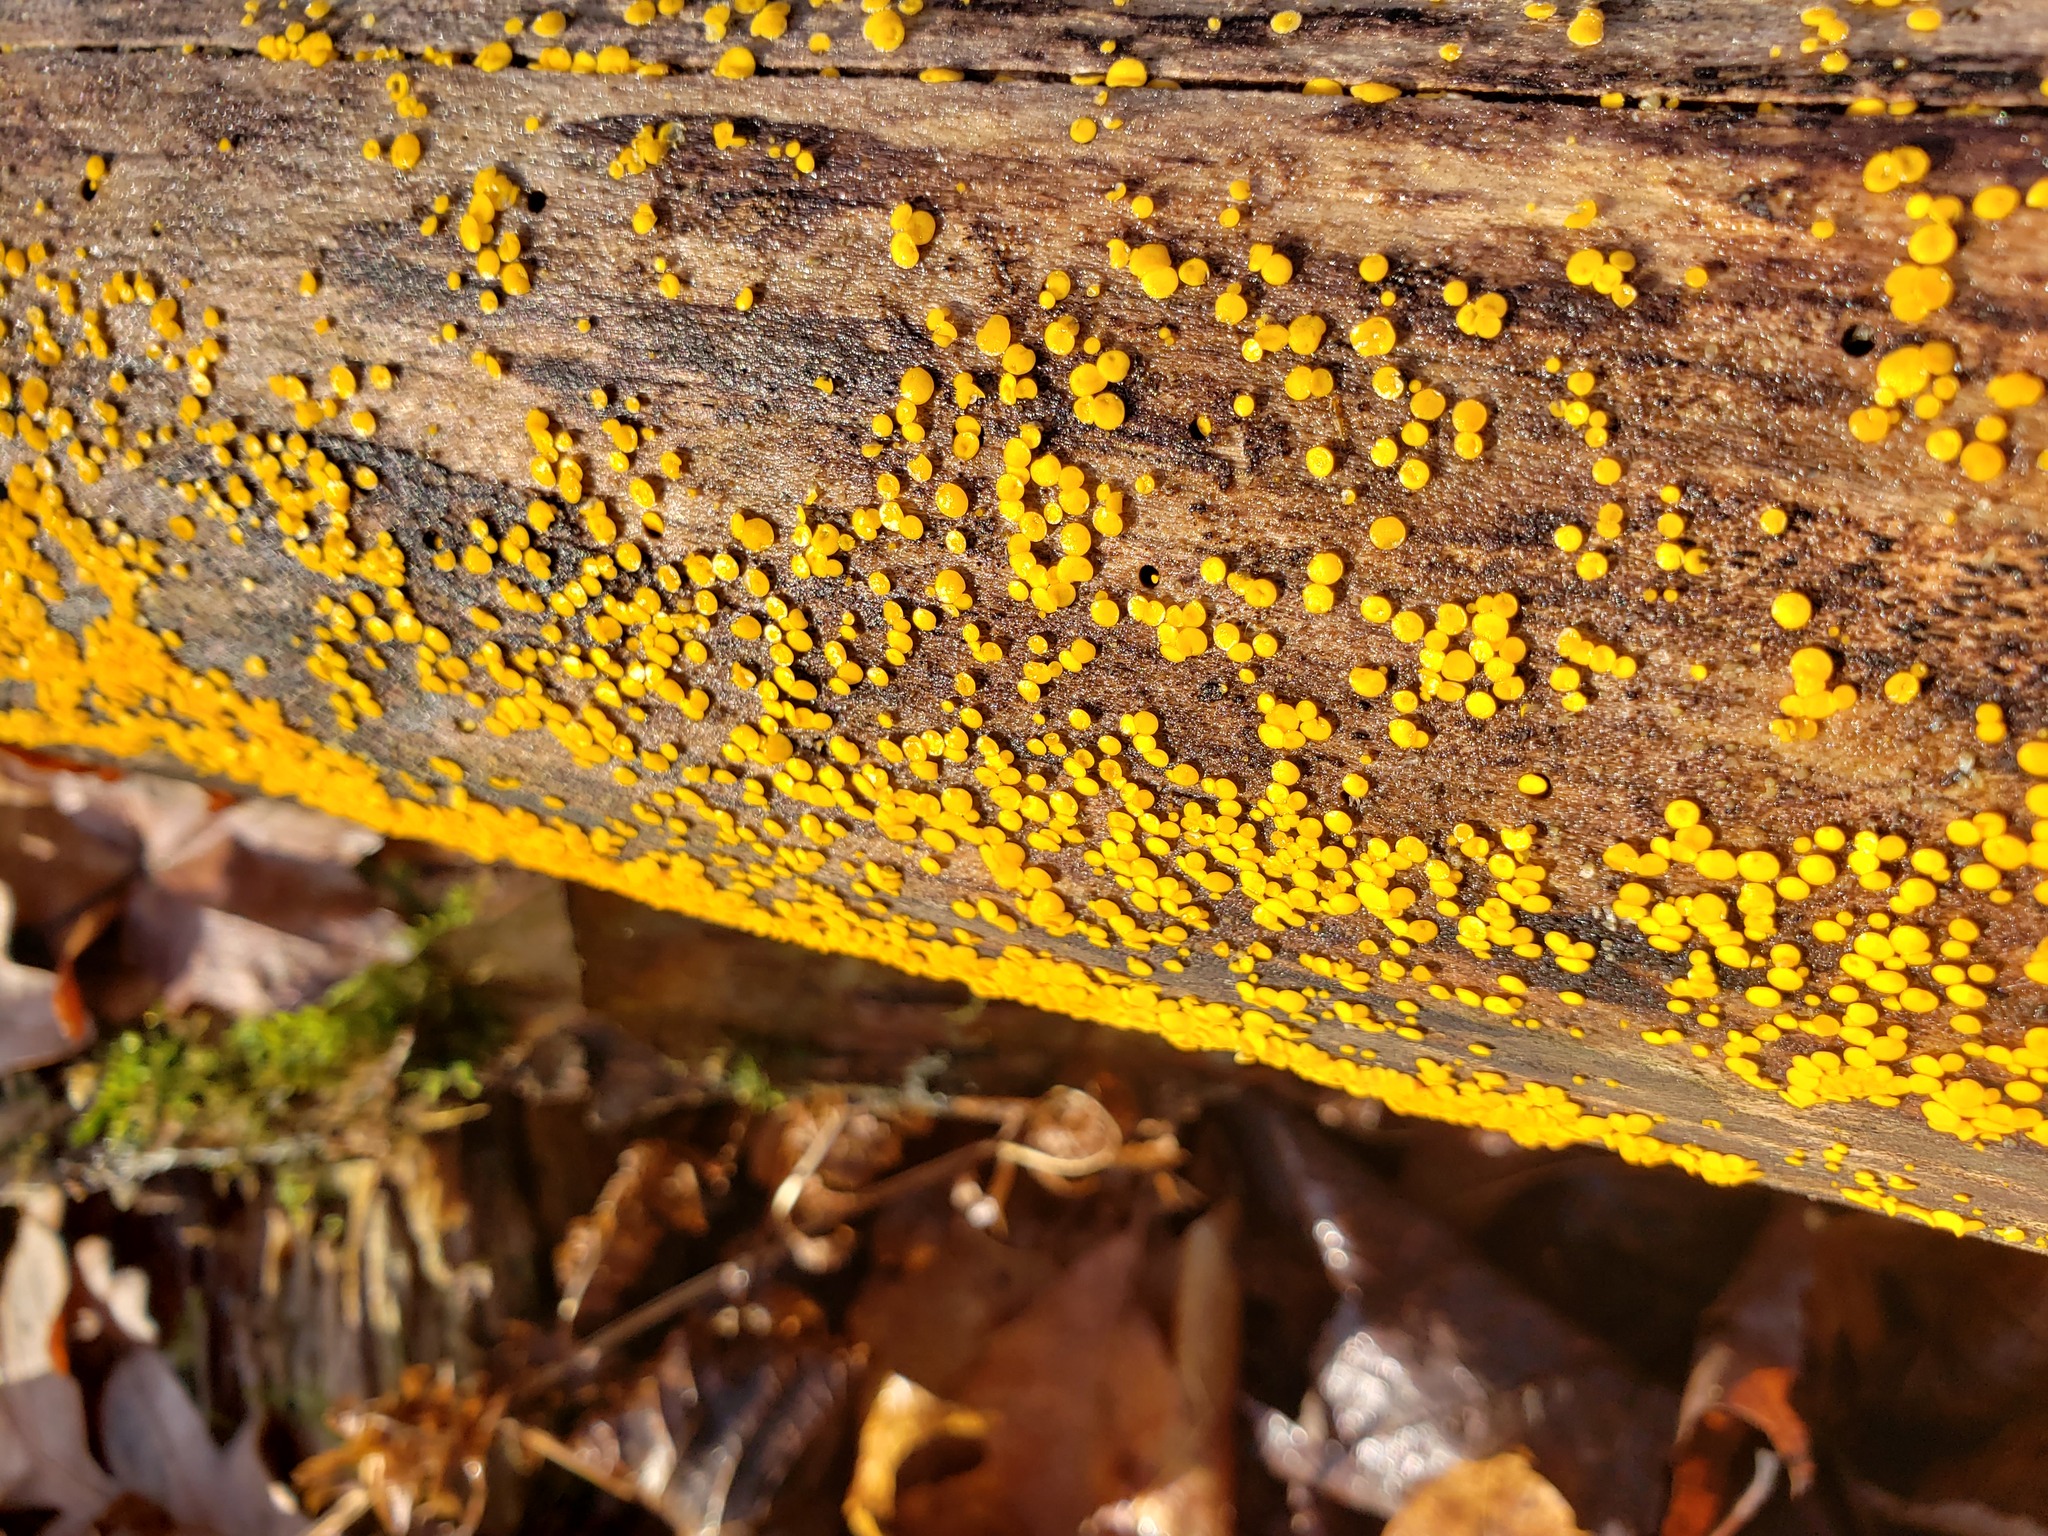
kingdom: Fungi
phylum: Ascomycota
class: Leotiomycetes
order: Helotiales
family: Pezizellaceae
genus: Calycina
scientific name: Calycina citrina
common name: Yellow fairy cups
